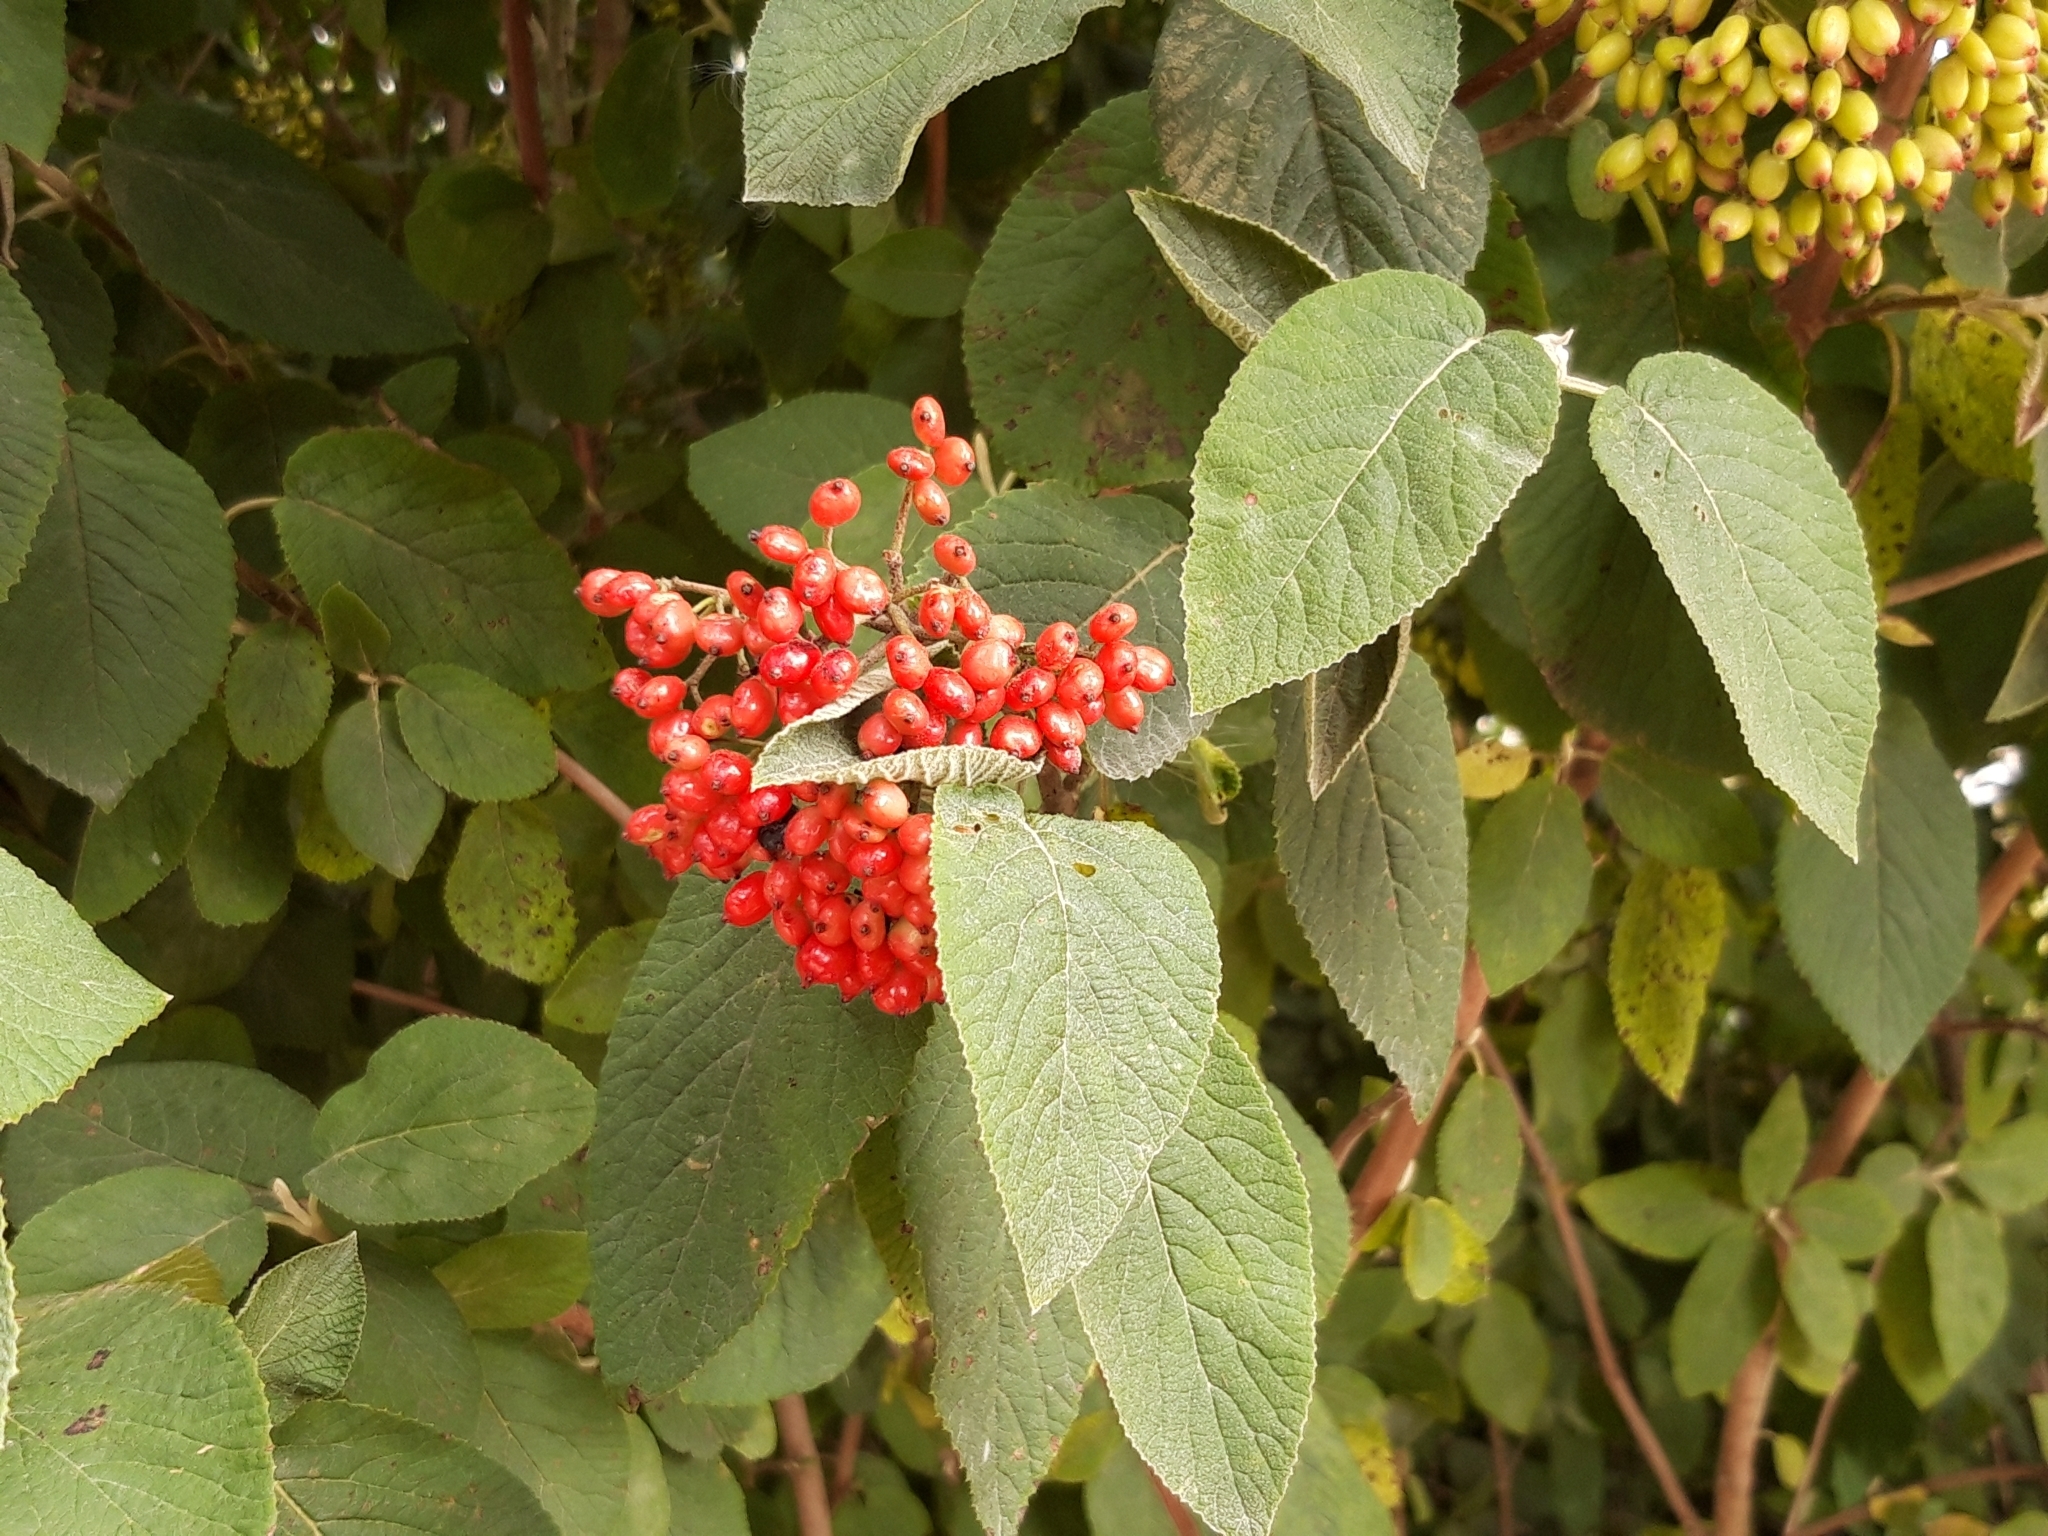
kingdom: Plantae
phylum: Tracheophyta
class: Magnoliopsida
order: Dipsacales
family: Viburnaceae
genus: Viburnum
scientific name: Viburnum lantana
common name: Wayfaring tree
